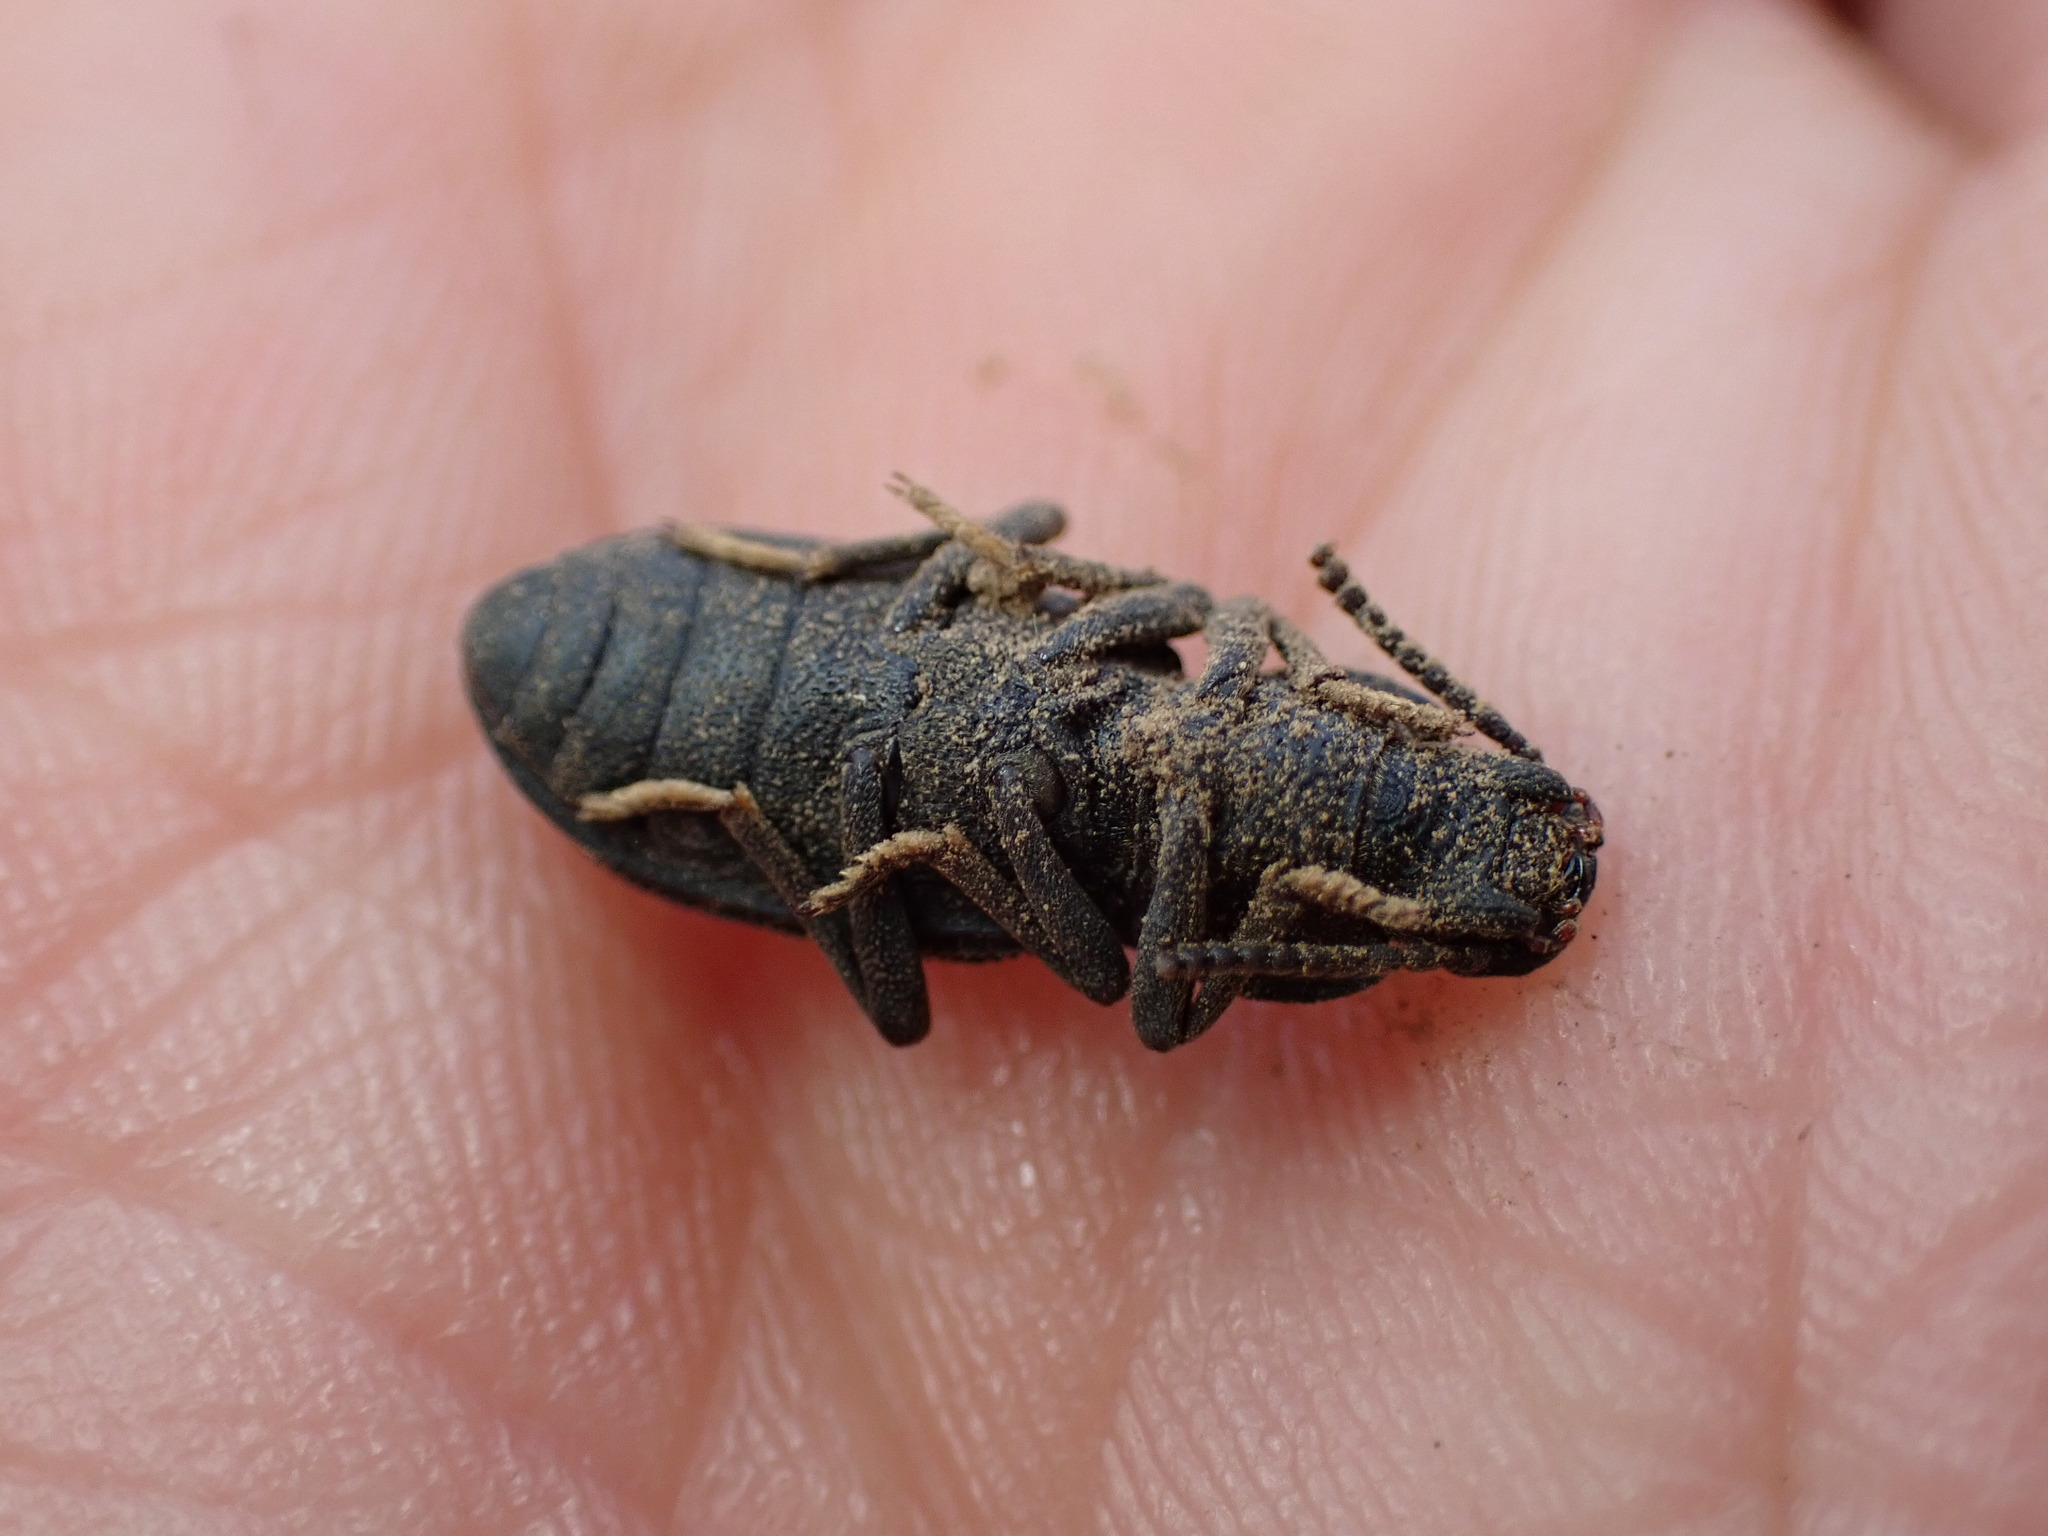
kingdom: Animalia
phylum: Arthropoda
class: Insecta
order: Coleoptera
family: Tenebrionidae
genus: Nyctoporis
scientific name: Nyctoporis carinata
